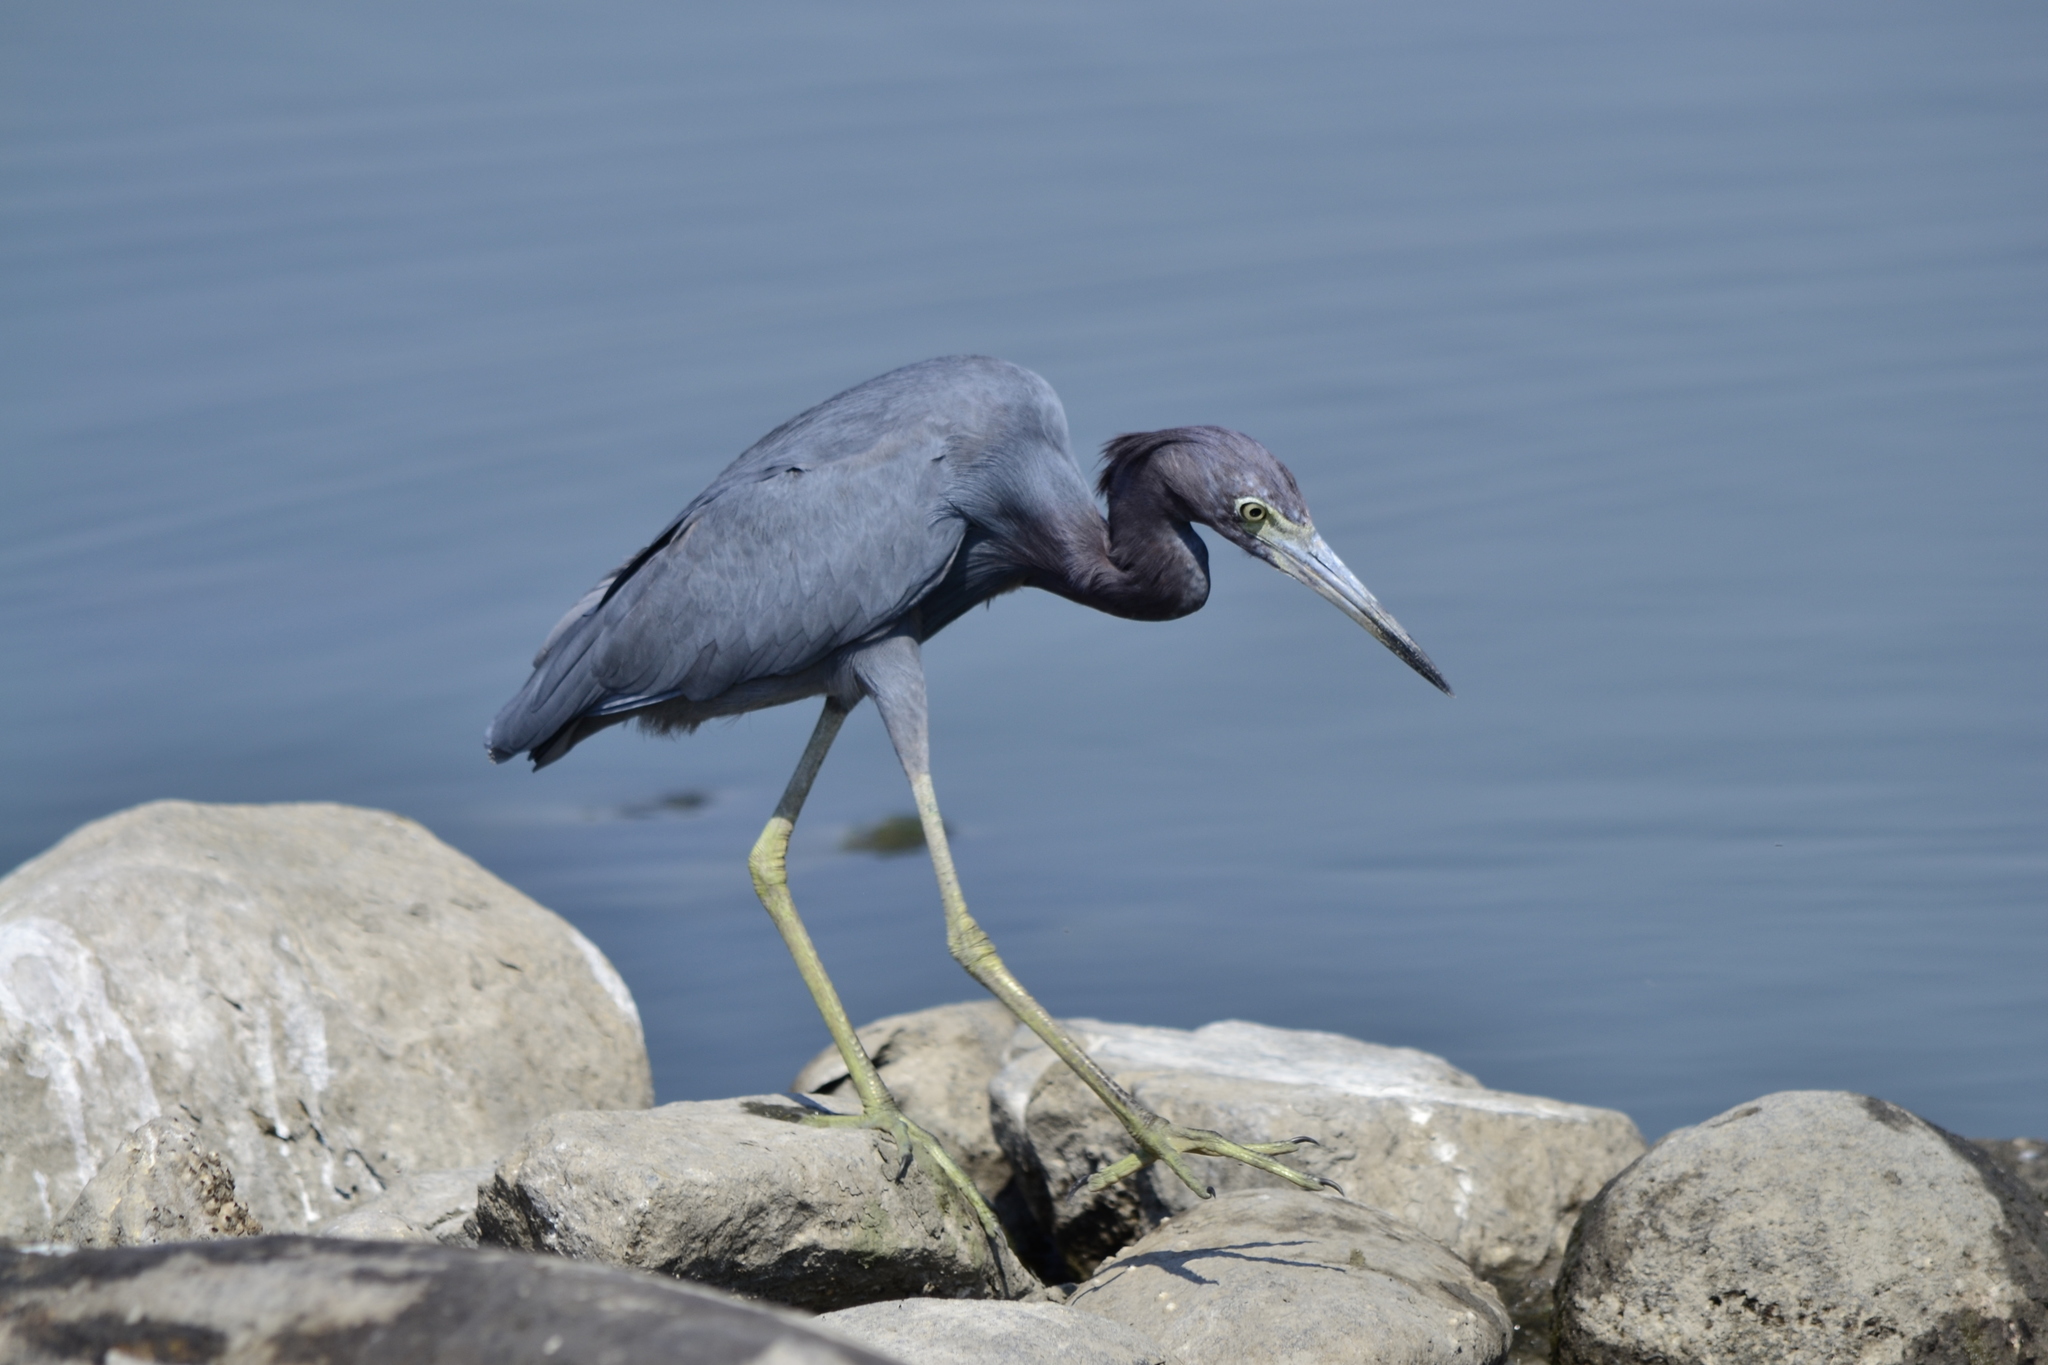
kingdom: Animalia
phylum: Chordata
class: Aves
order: Pelecaniformes
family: Ardeidae
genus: Egretta
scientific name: Egretta caerulea
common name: Little blue heron
